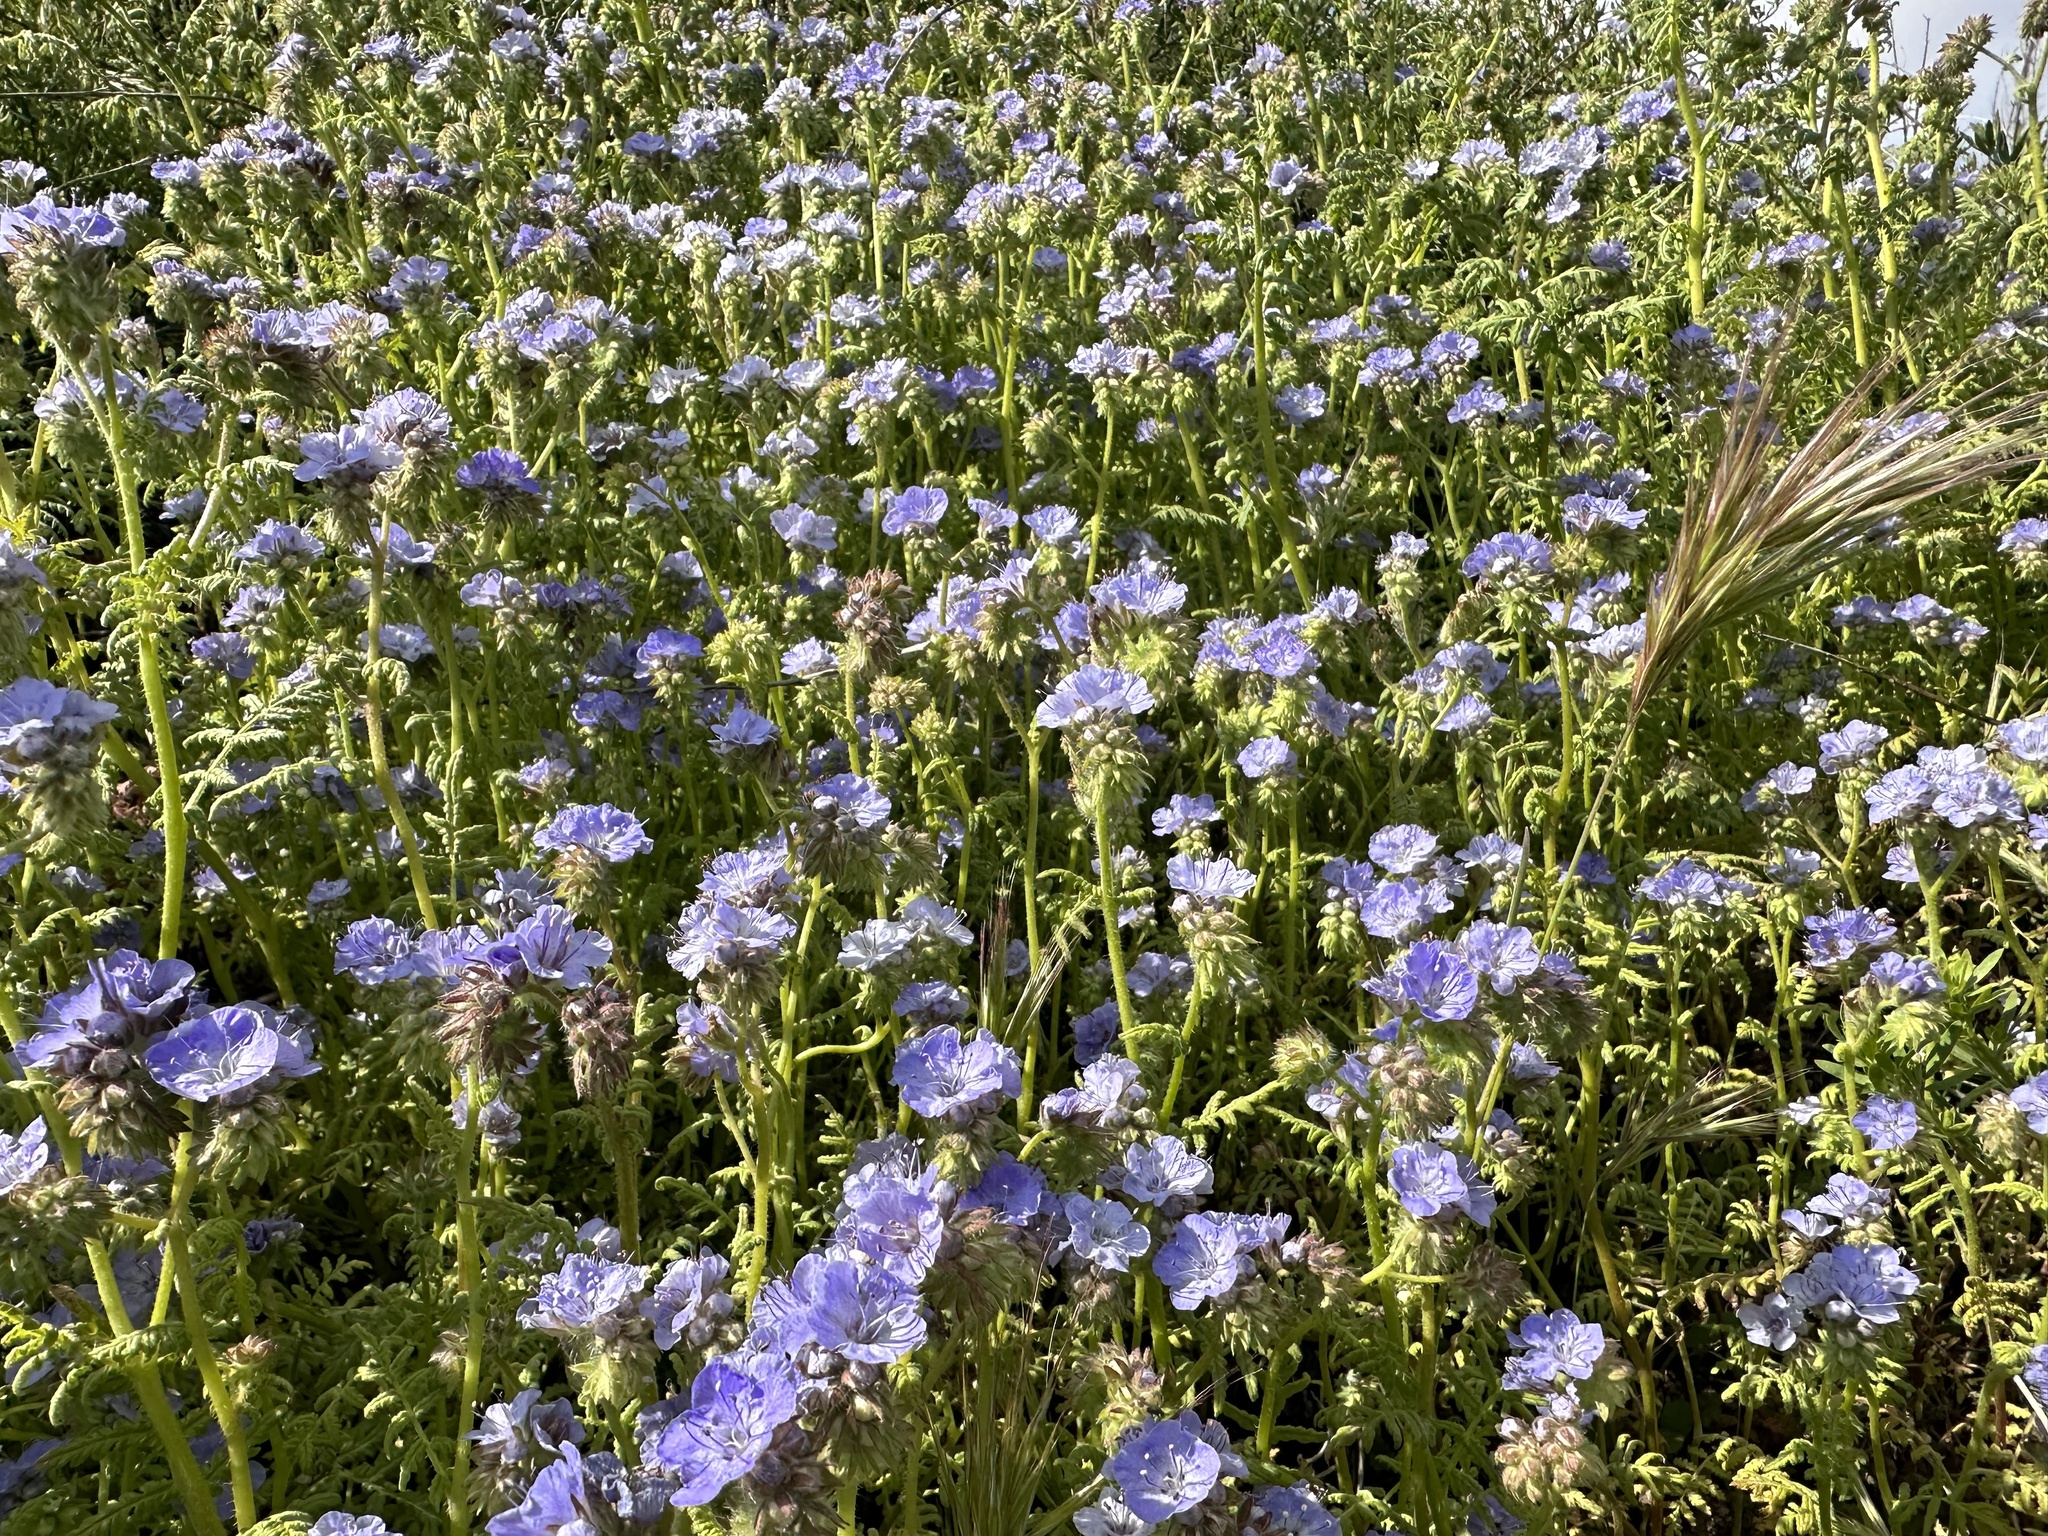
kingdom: Plantae
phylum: Tracheophyta
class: Magnoliopsida
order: Boraginales
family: Hydrophyllaceae
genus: Phacelia
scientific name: Phacelia distans
